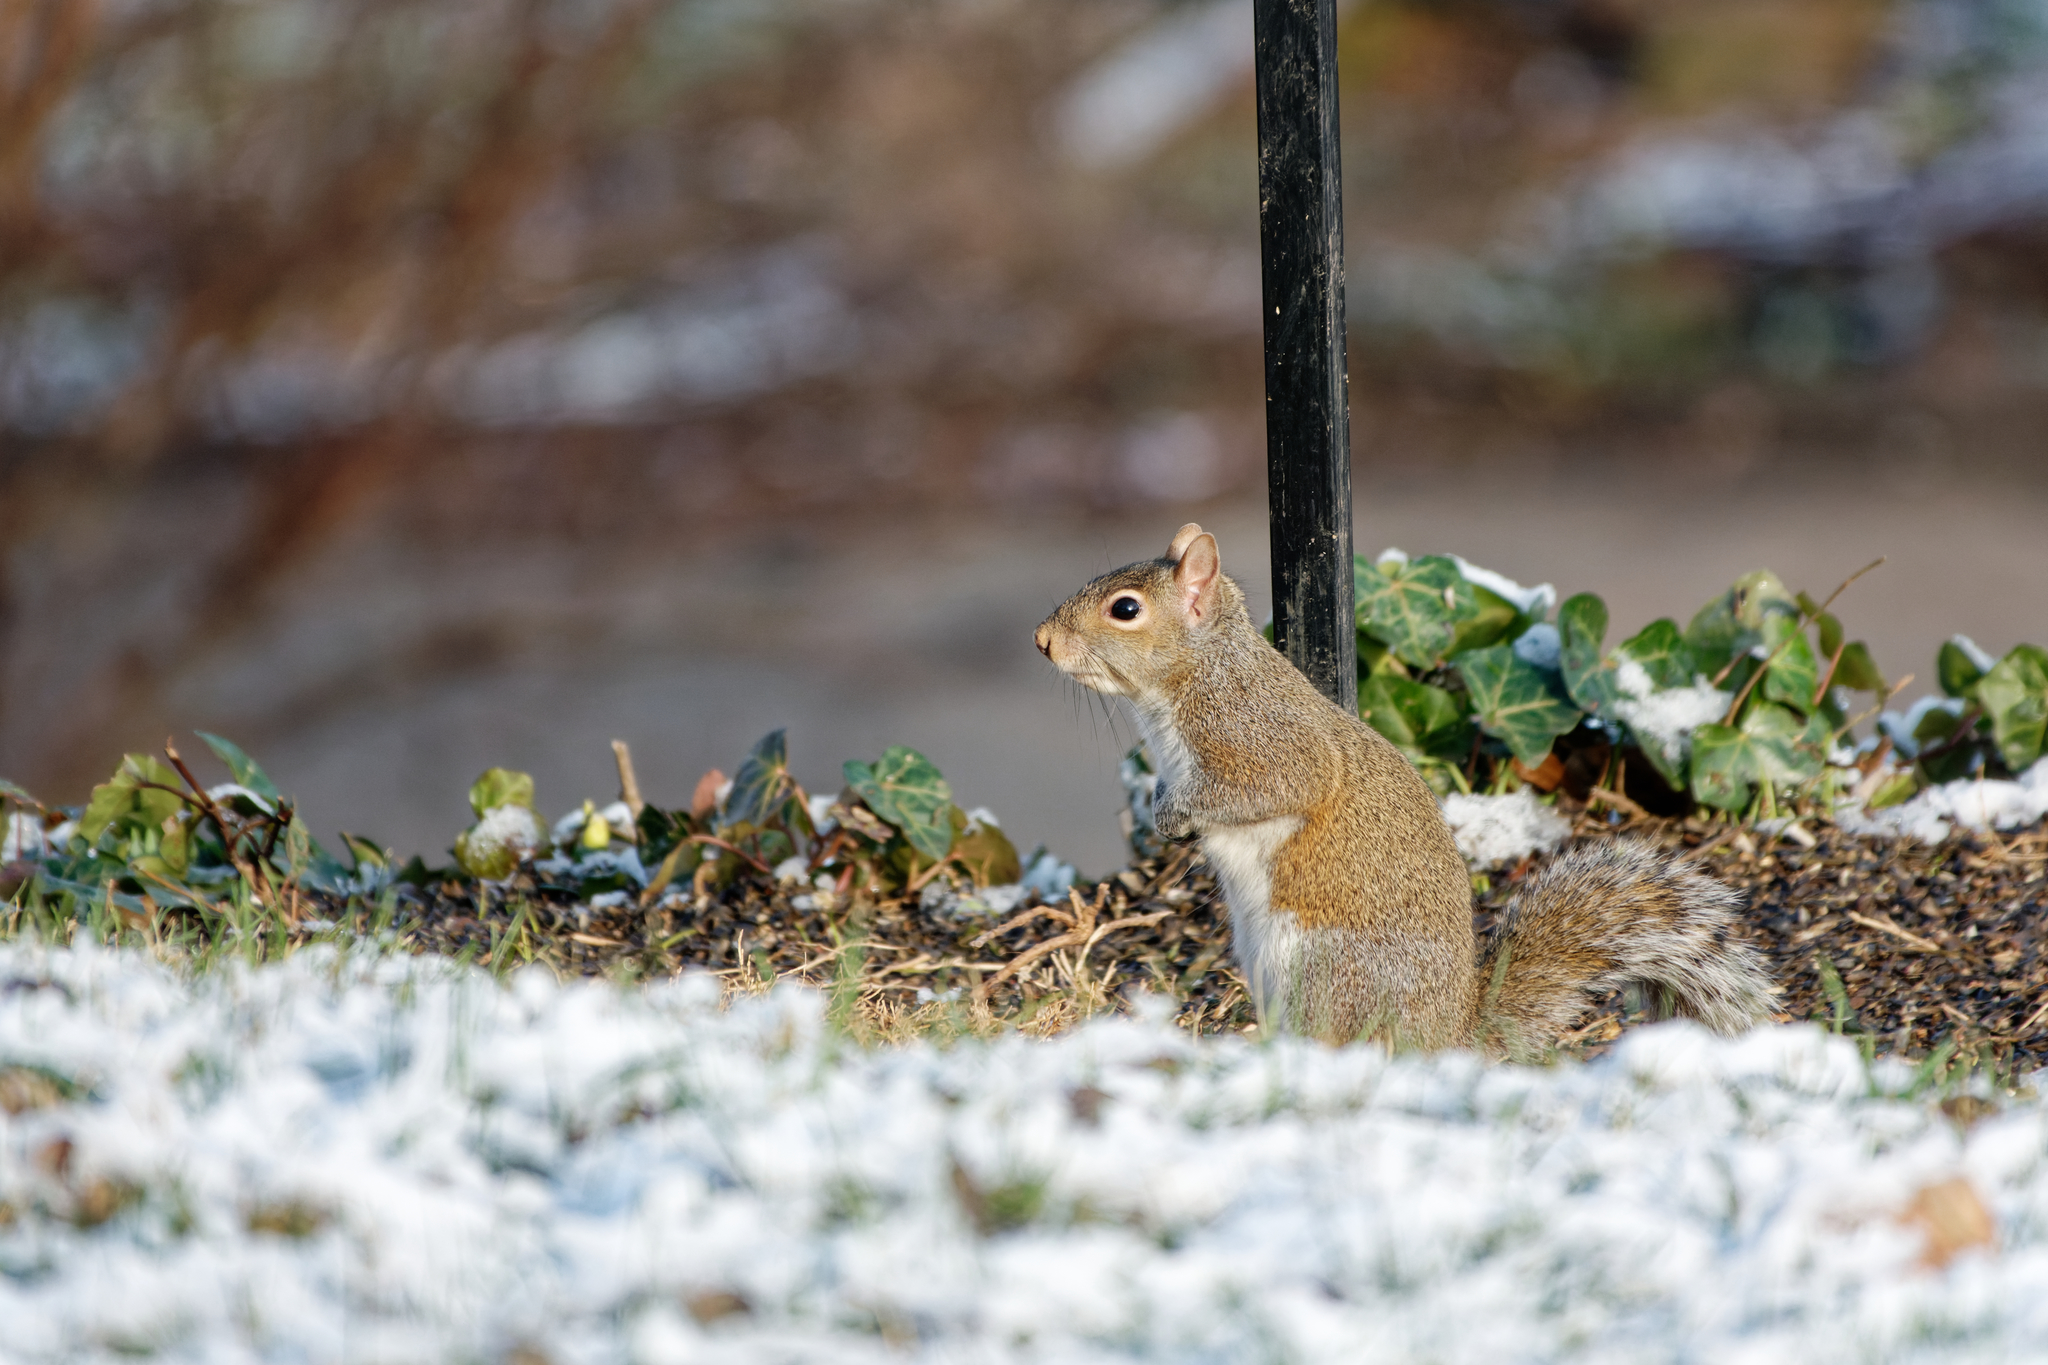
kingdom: Animalia
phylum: Chordata
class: Mammalia
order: Rodentia
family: Sciuridae
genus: Sciurus
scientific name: Sciurus carolinensis
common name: Eastern gray squirrel
